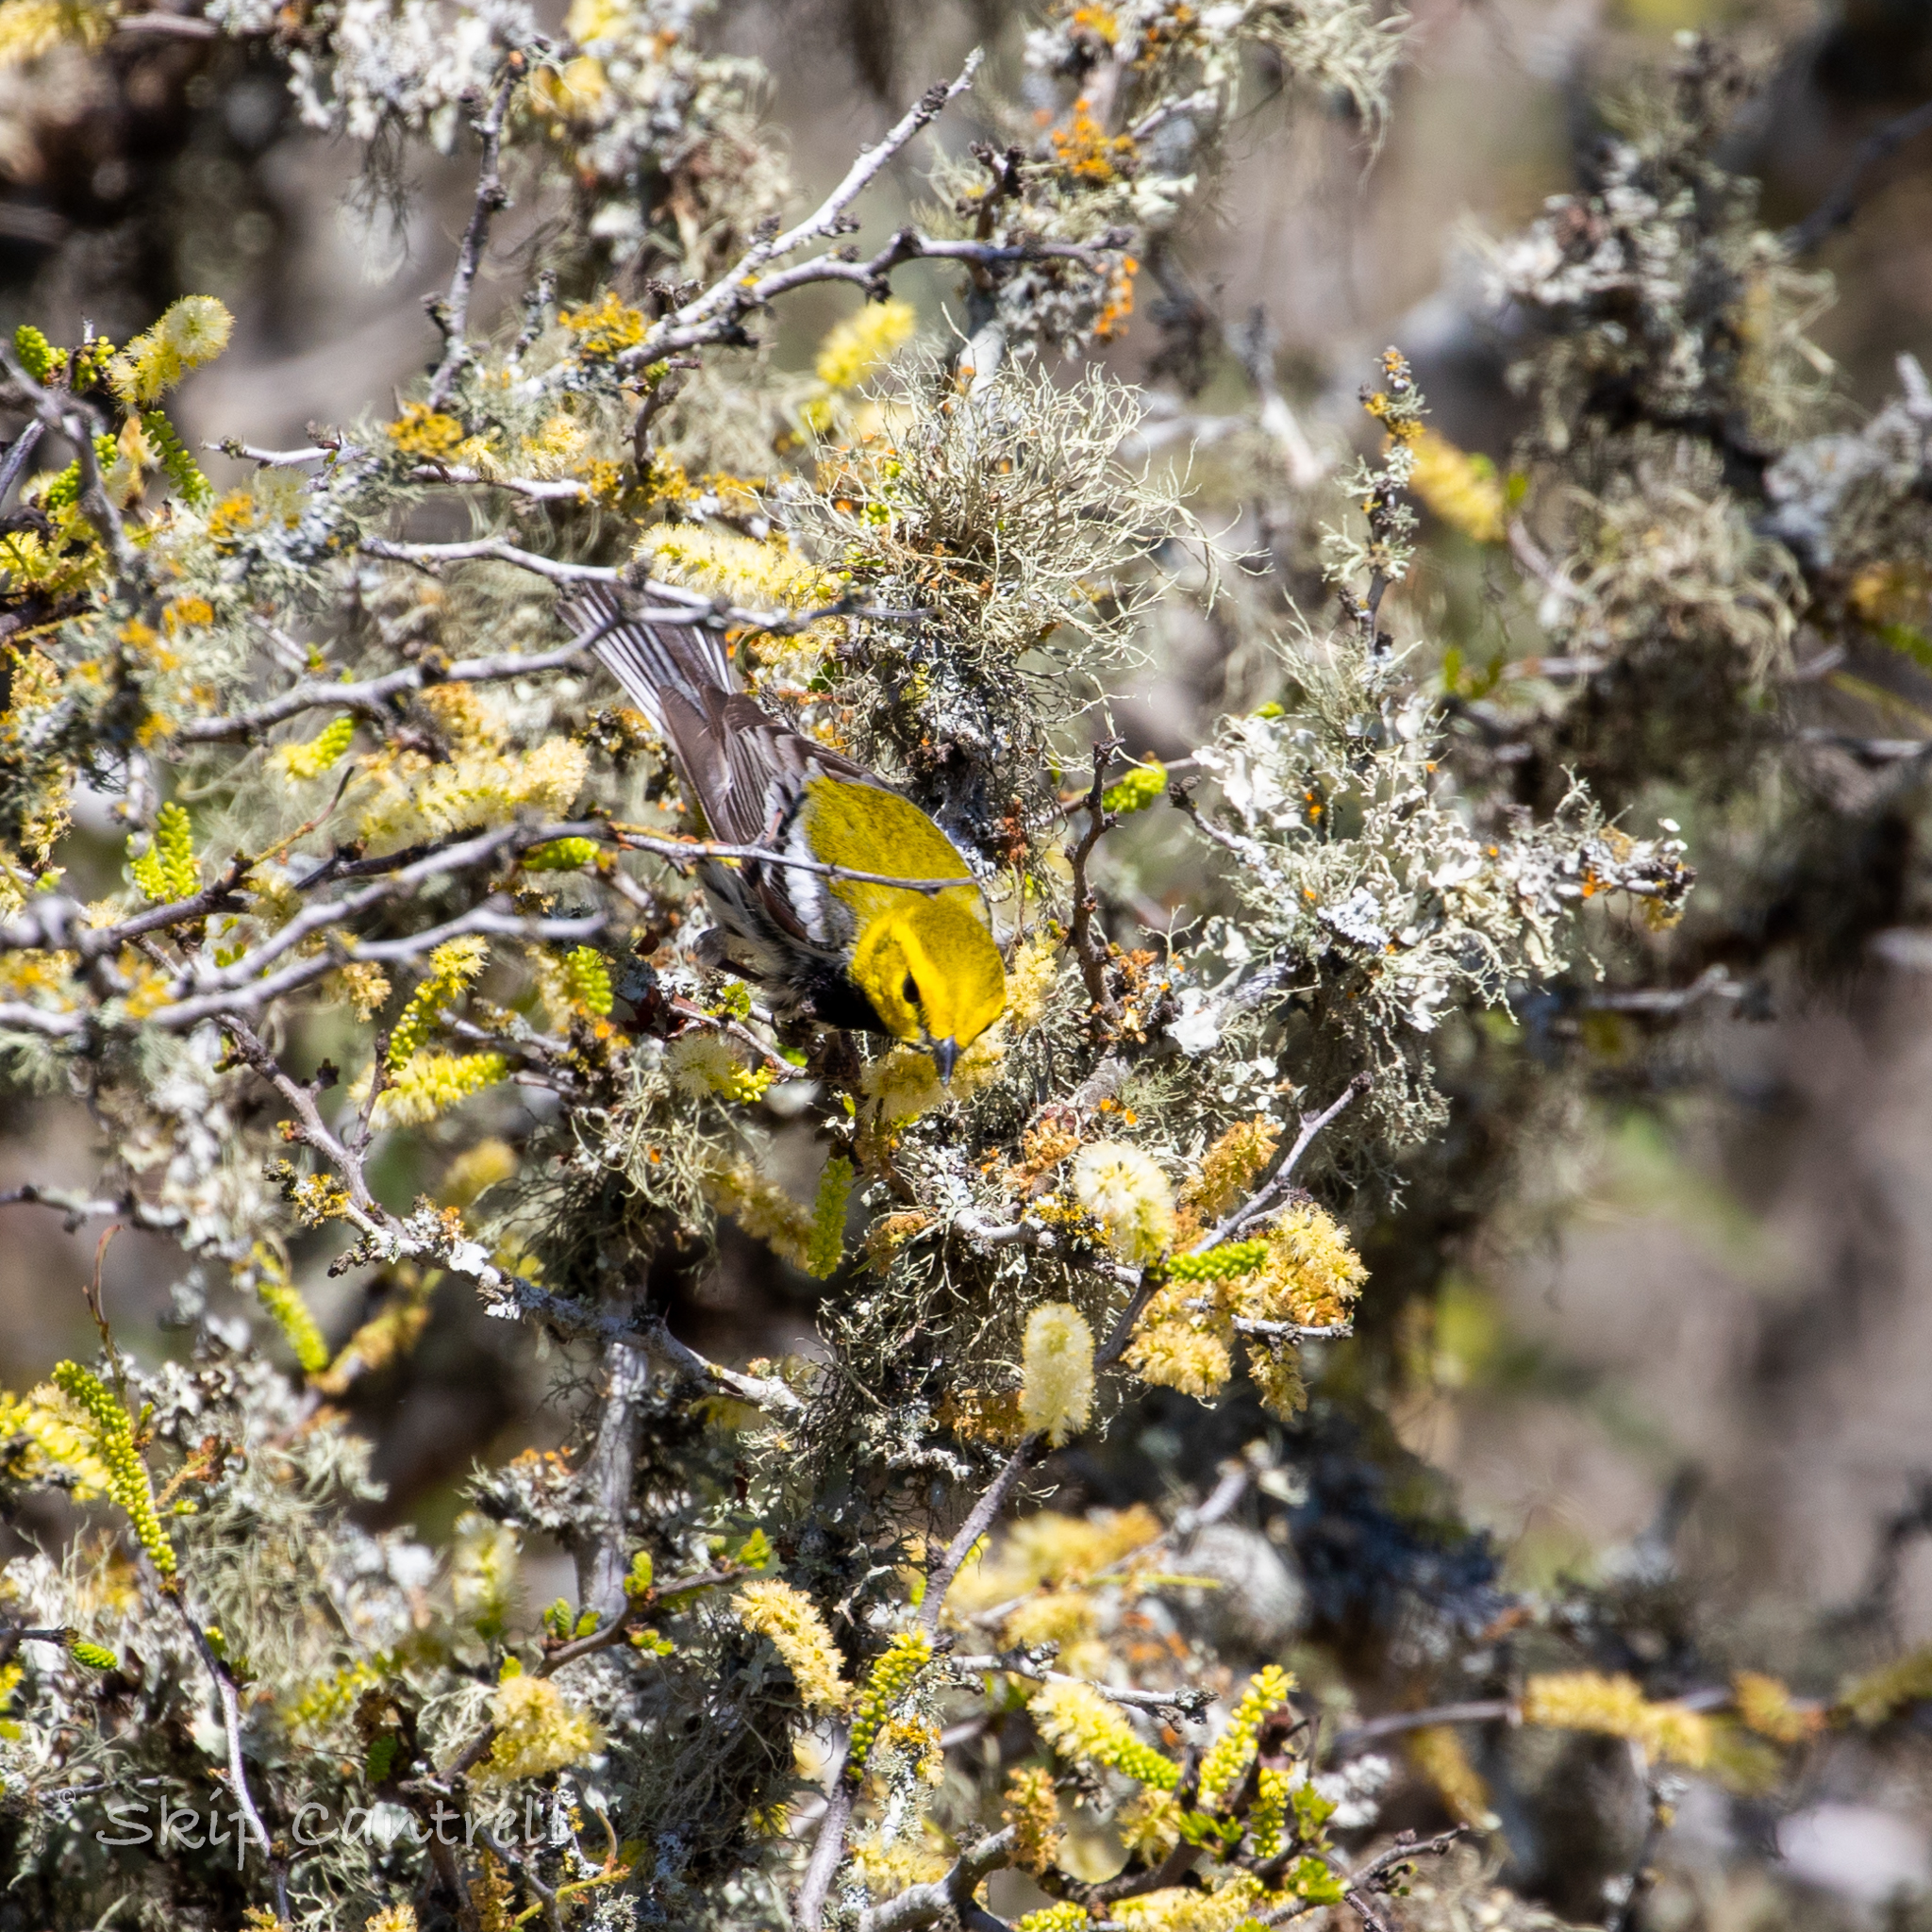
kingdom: Animalia
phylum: Chordata
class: Aves
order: Passeriformes
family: Parulidae
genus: Setophaga
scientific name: Setophaga virens
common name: Black-throated green warbler
